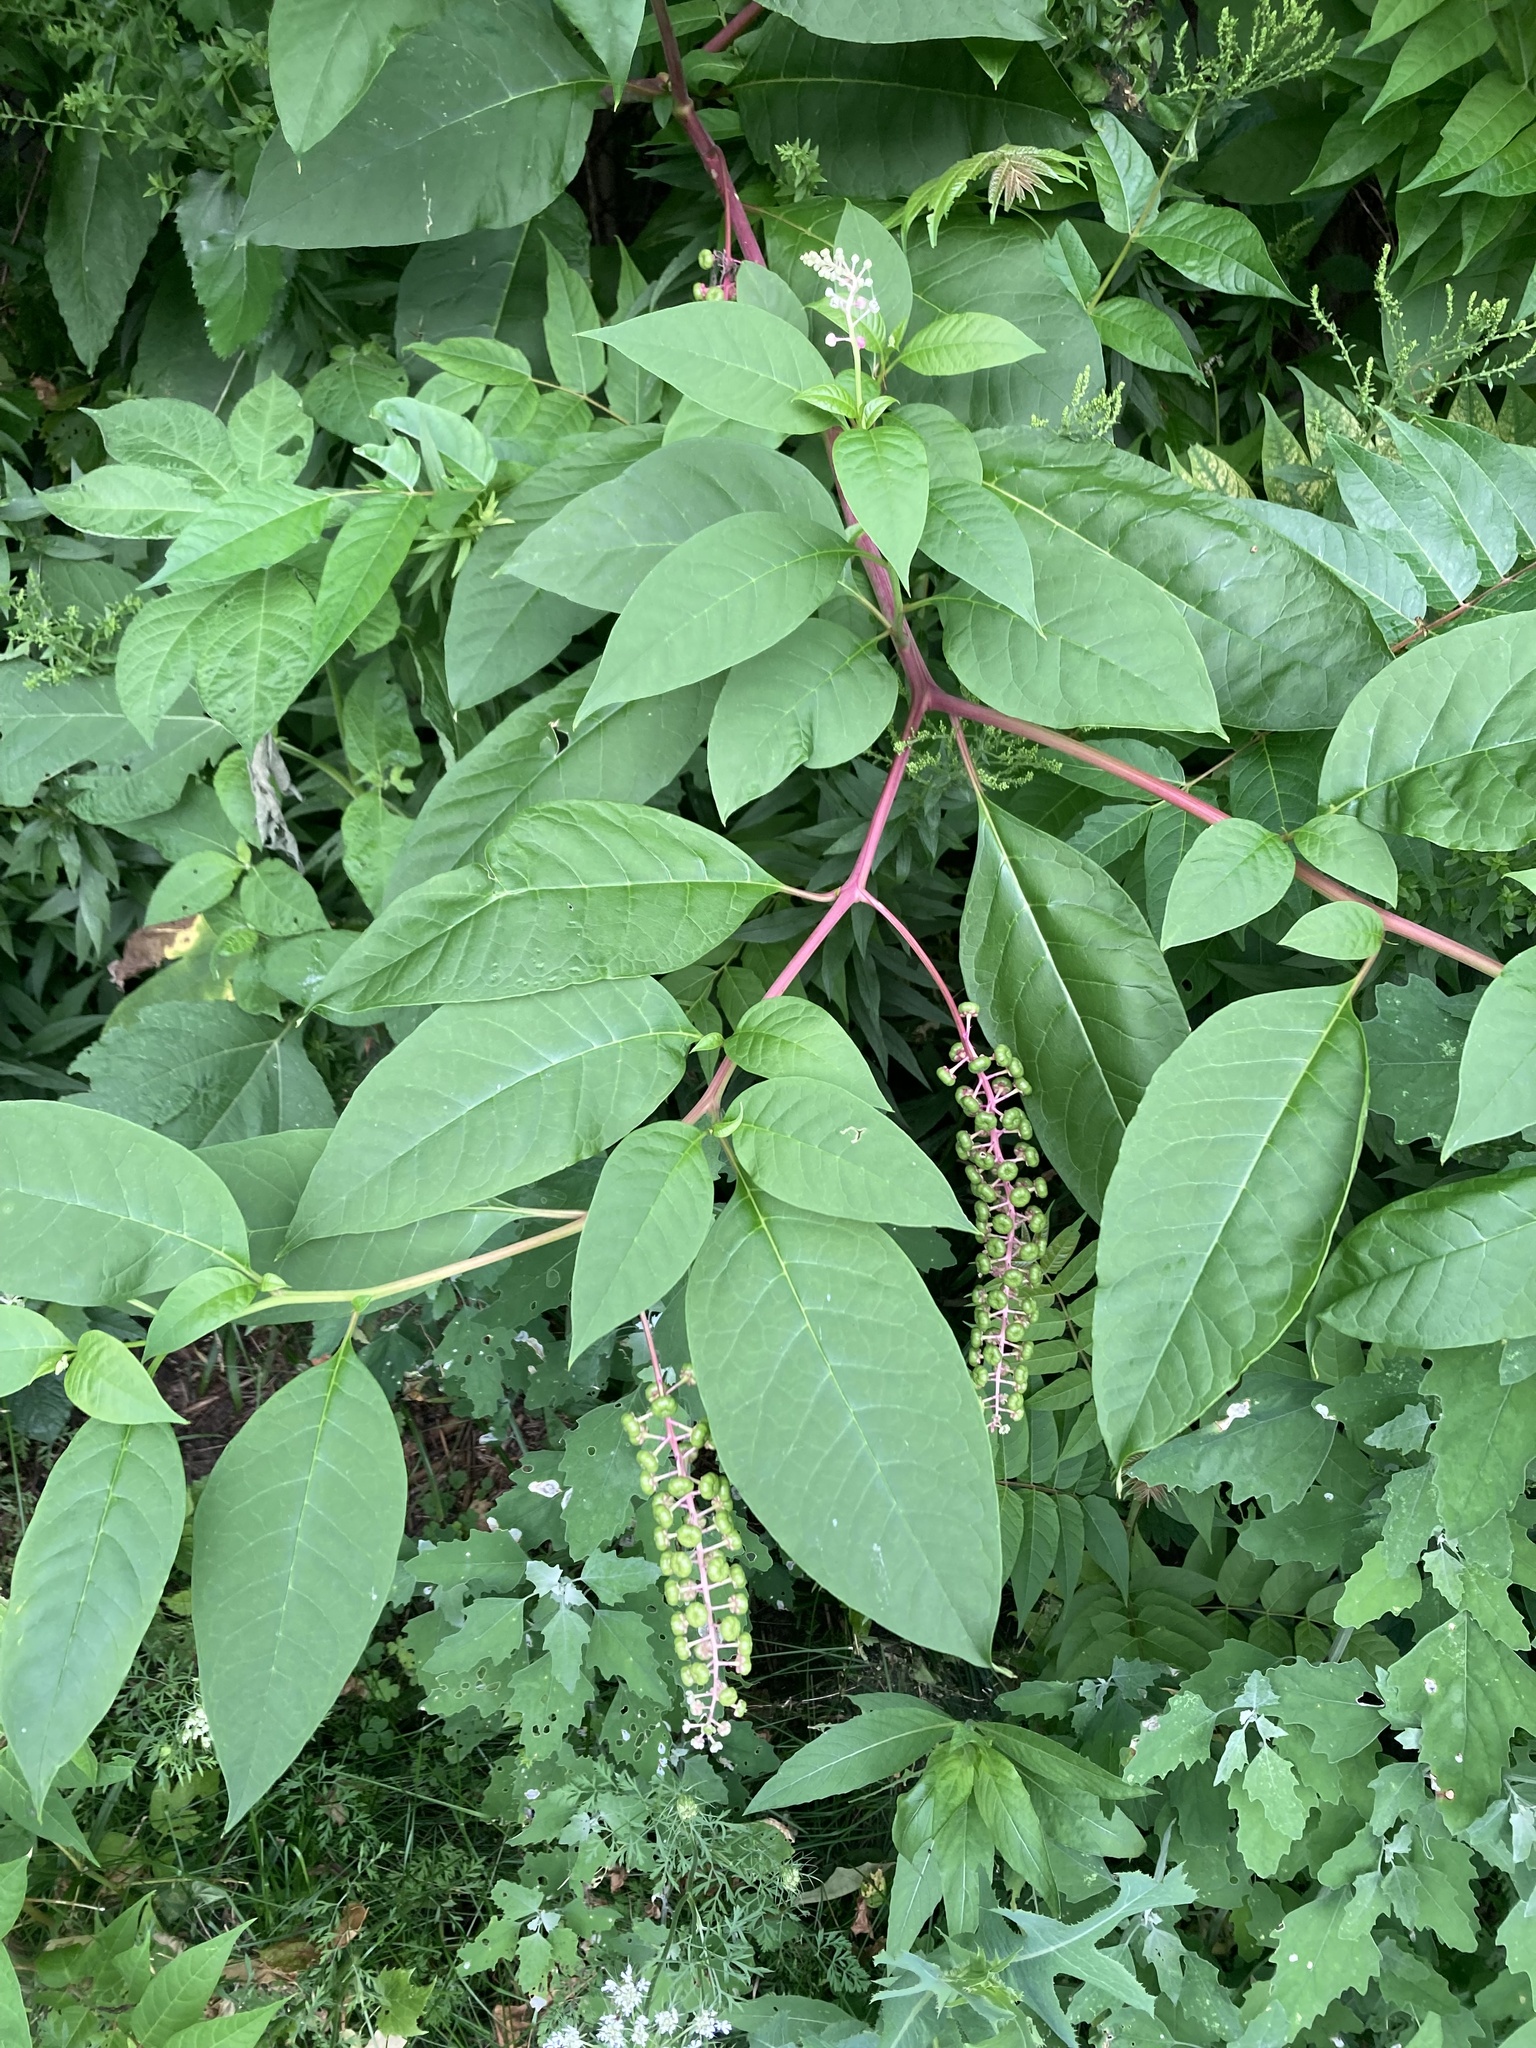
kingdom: Plantae
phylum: Tracheophyta
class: Magnoliopsida
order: Caryophyllales
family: Phytolaccaceae
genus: Phytolacca
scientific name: Phytolacca americana
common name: American pokeweed
